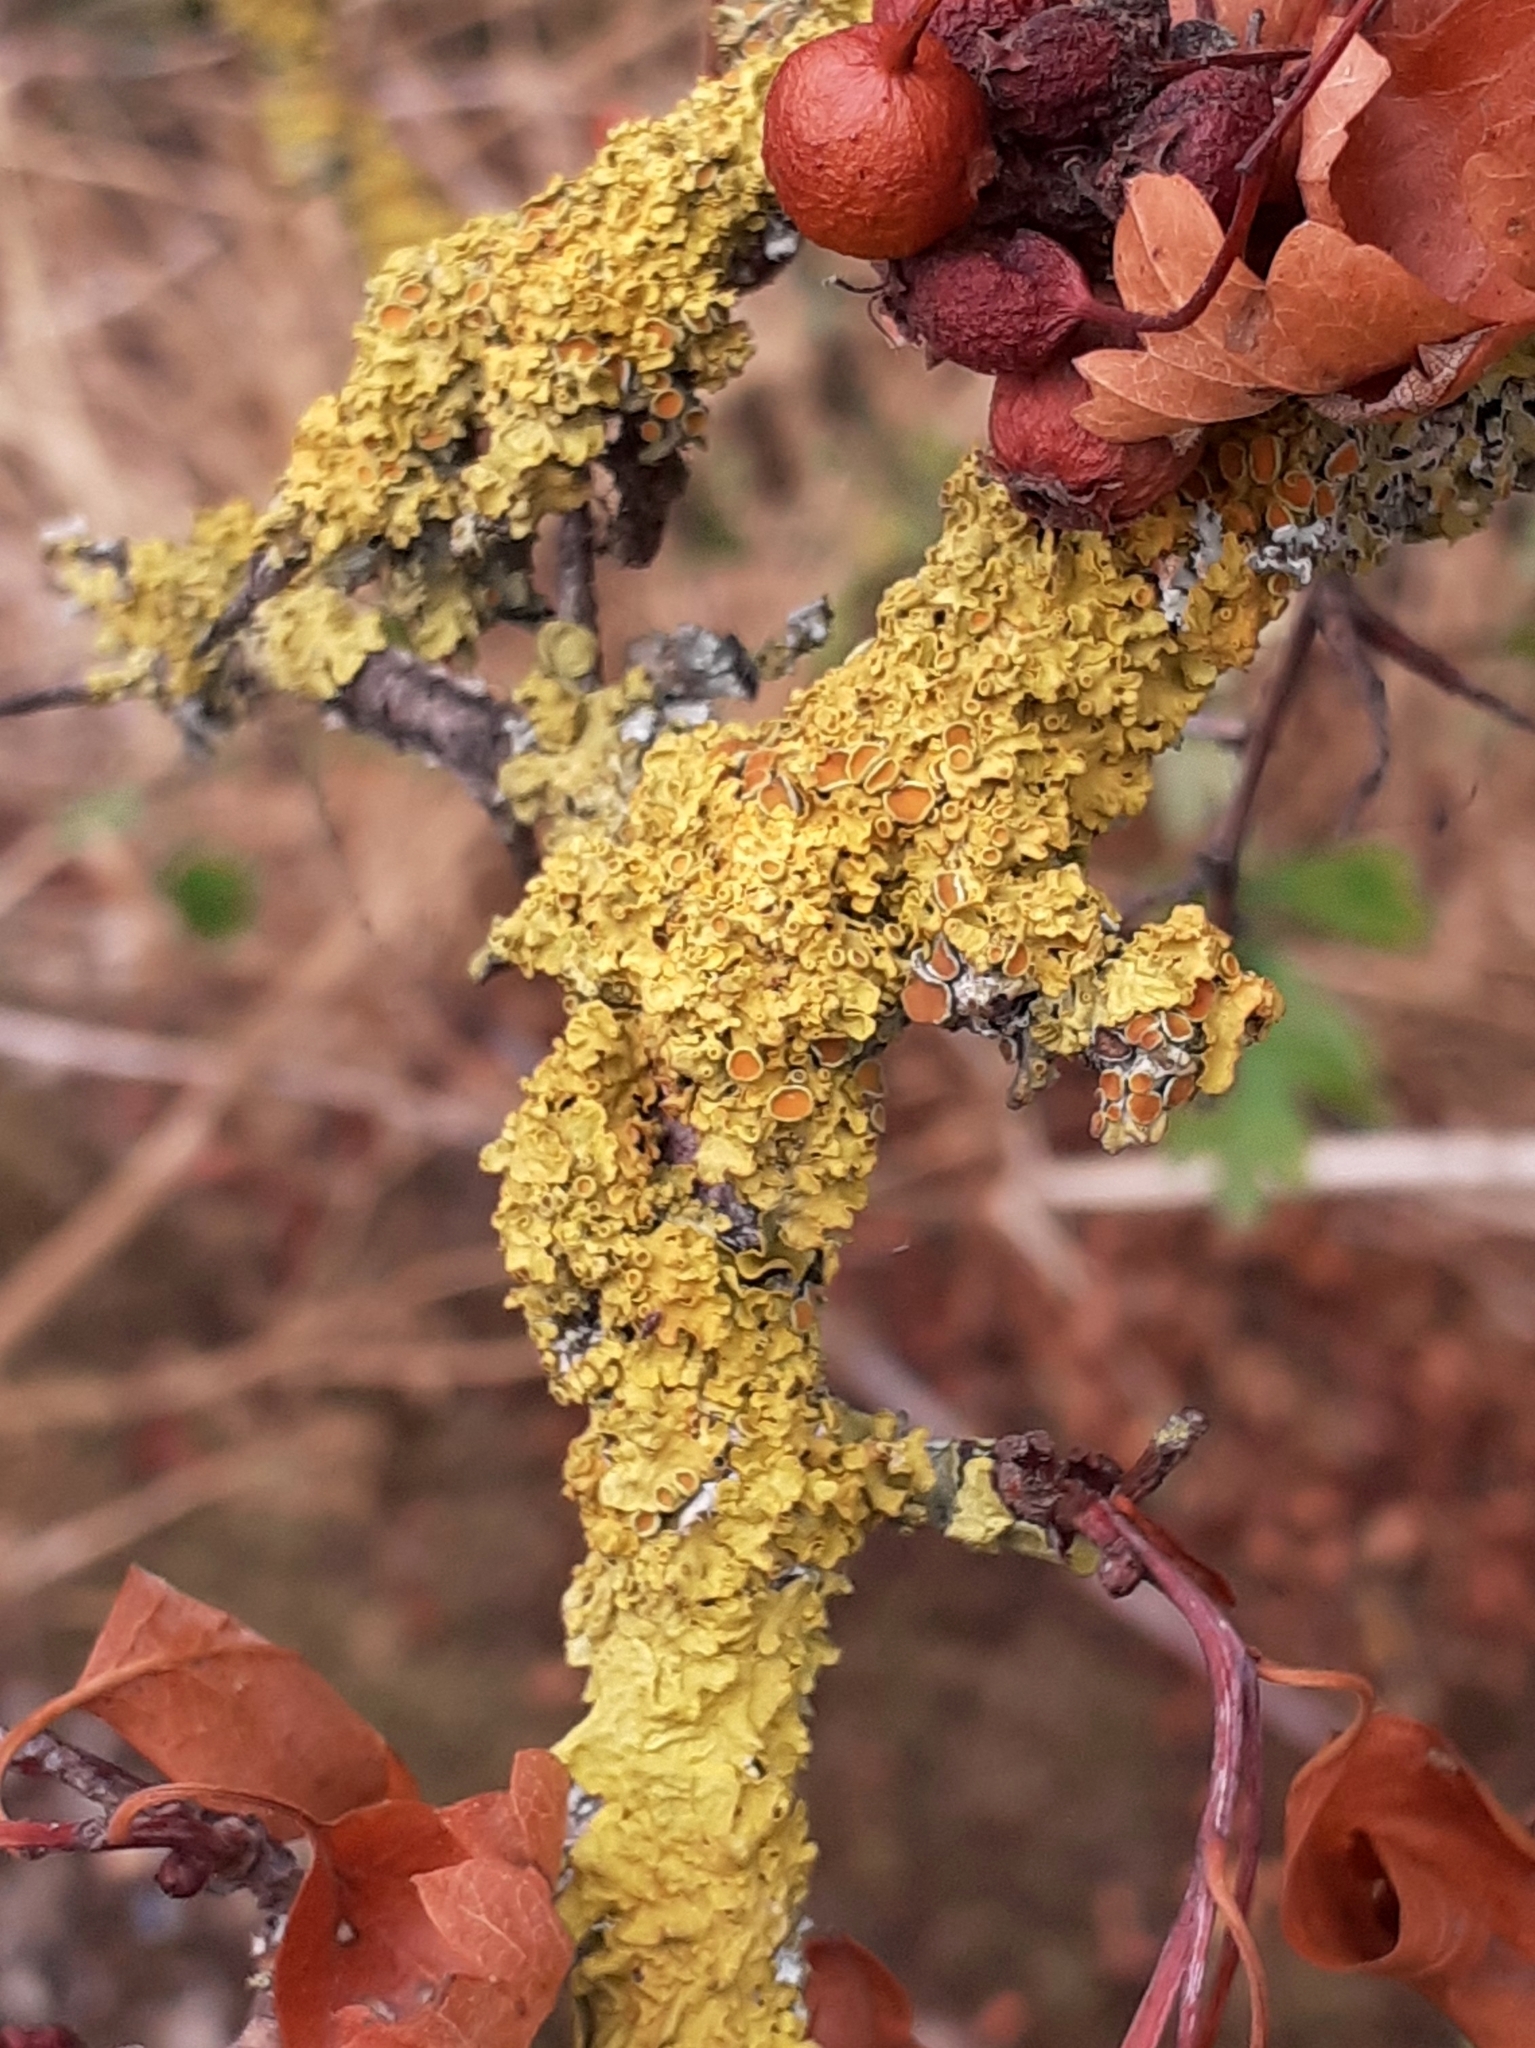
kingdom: Fungi
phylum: Ascomycota
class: Lecanoromycetes
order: Teloschistales
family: Teloschistaceae
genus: Xanthoria
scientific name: Xanthoria parietina
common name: Common orange lichen
